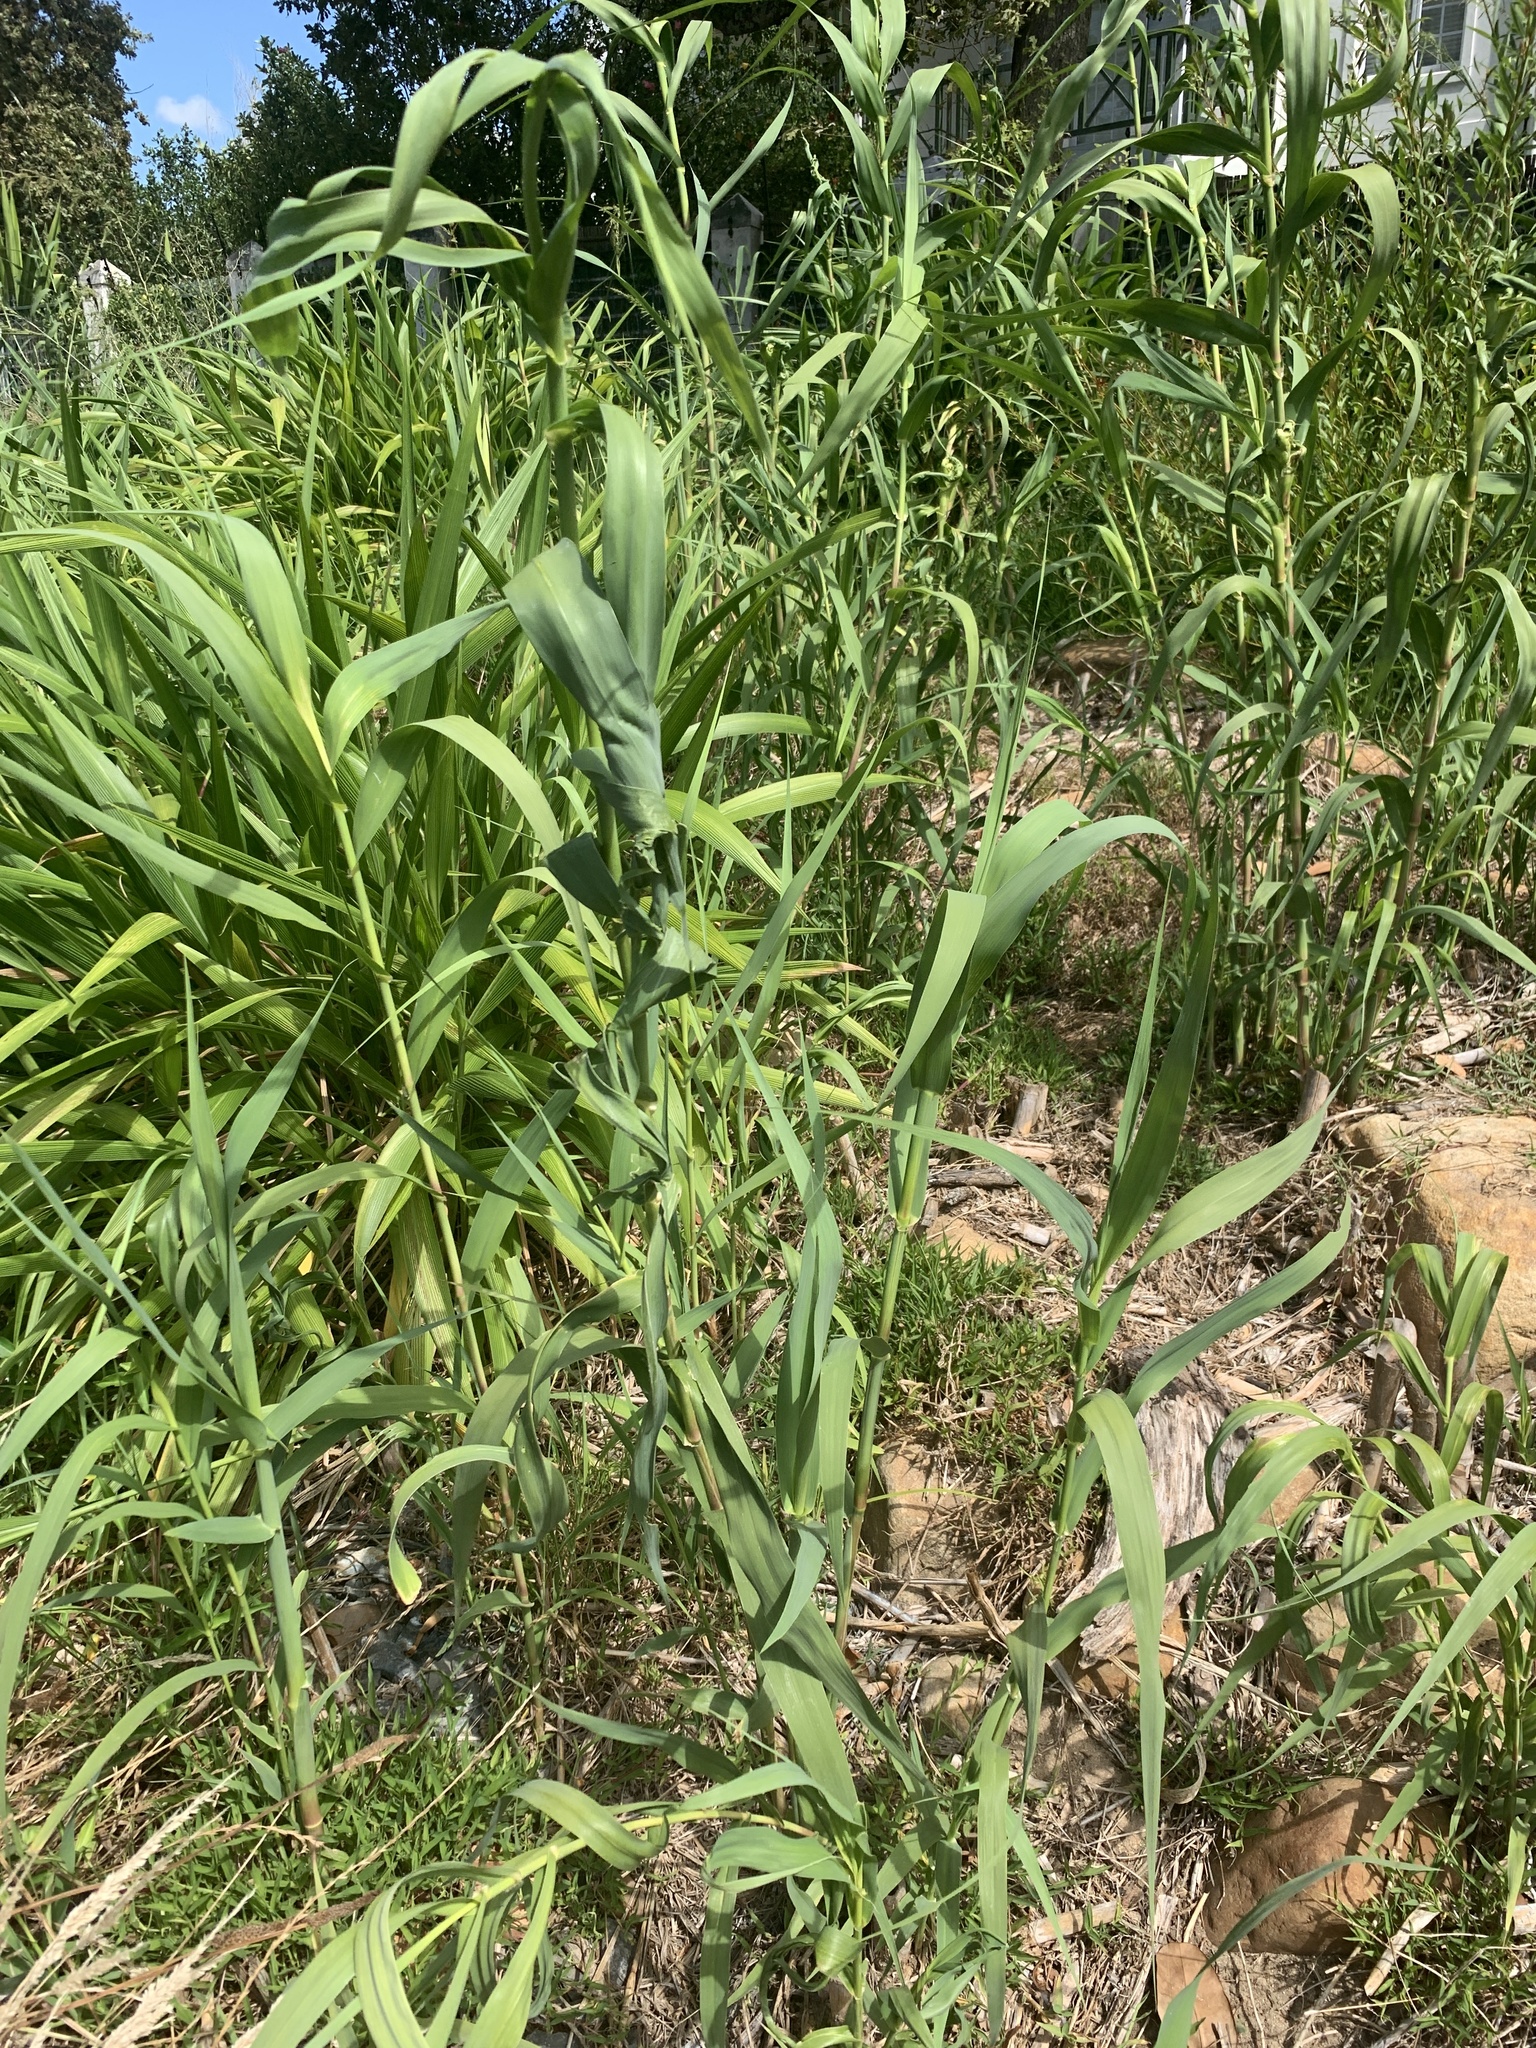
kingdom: Plantae
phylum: Tracheophyta
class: Liliopsida
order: Poales
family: Poaceae
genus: Arundo
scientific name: Arundo donax
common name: Giant reed
